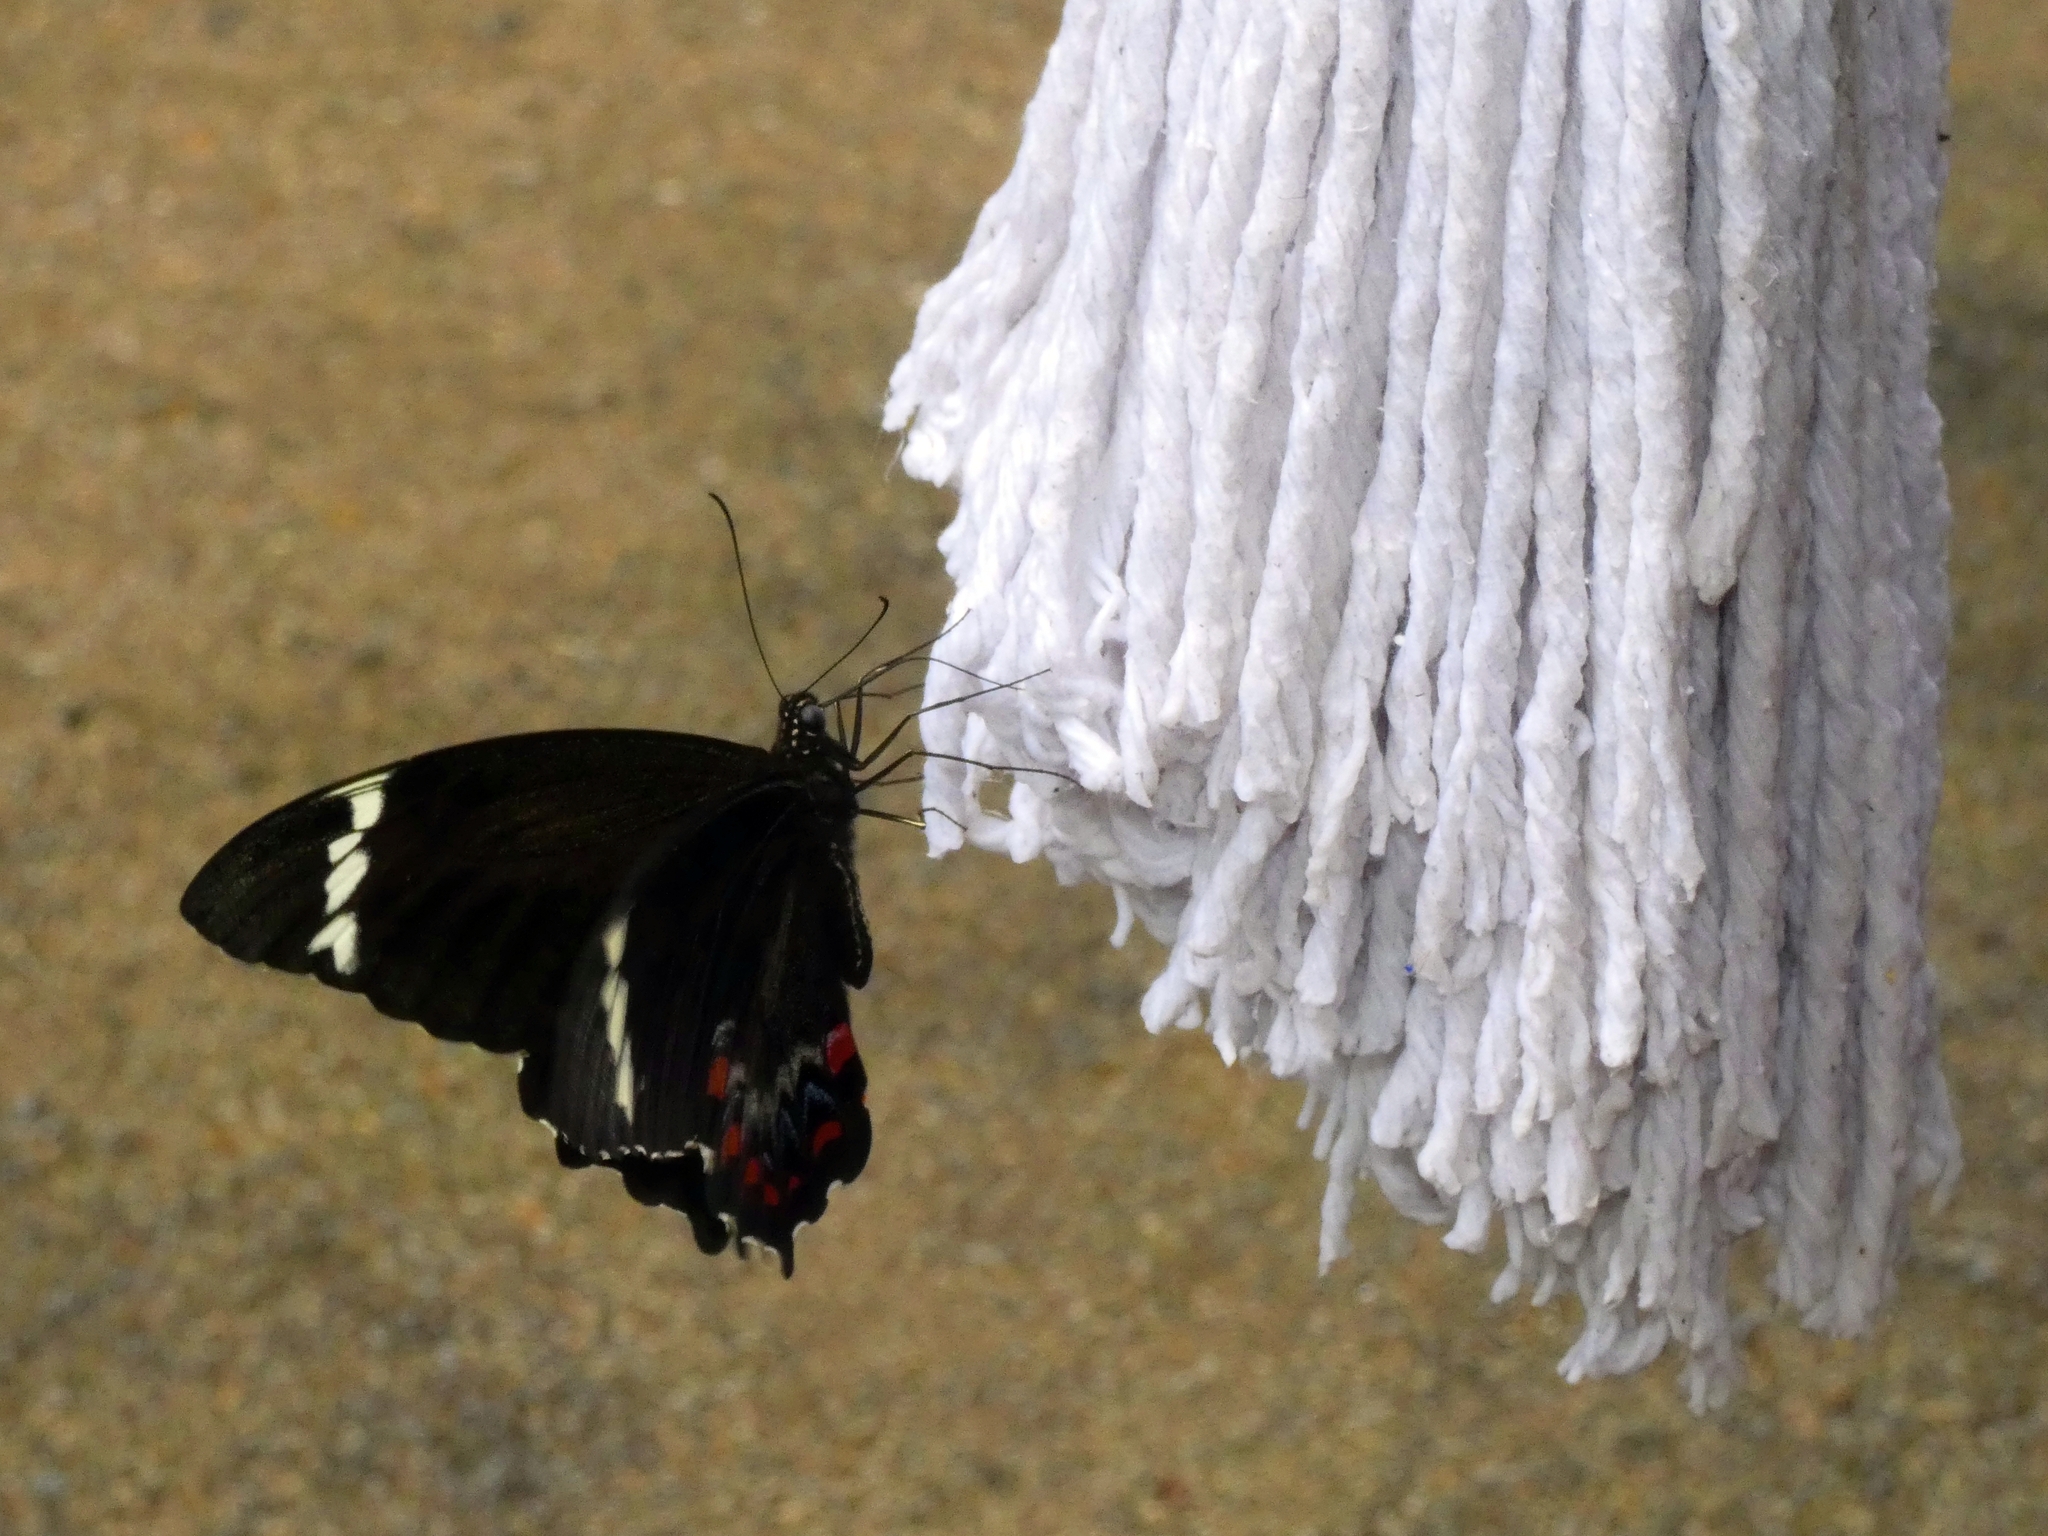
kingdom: Animalia
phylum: Arthropoda
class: Insecta
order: Lepidoptera
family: Papilionidae
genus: Papilio
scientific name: Papilio aegeus
